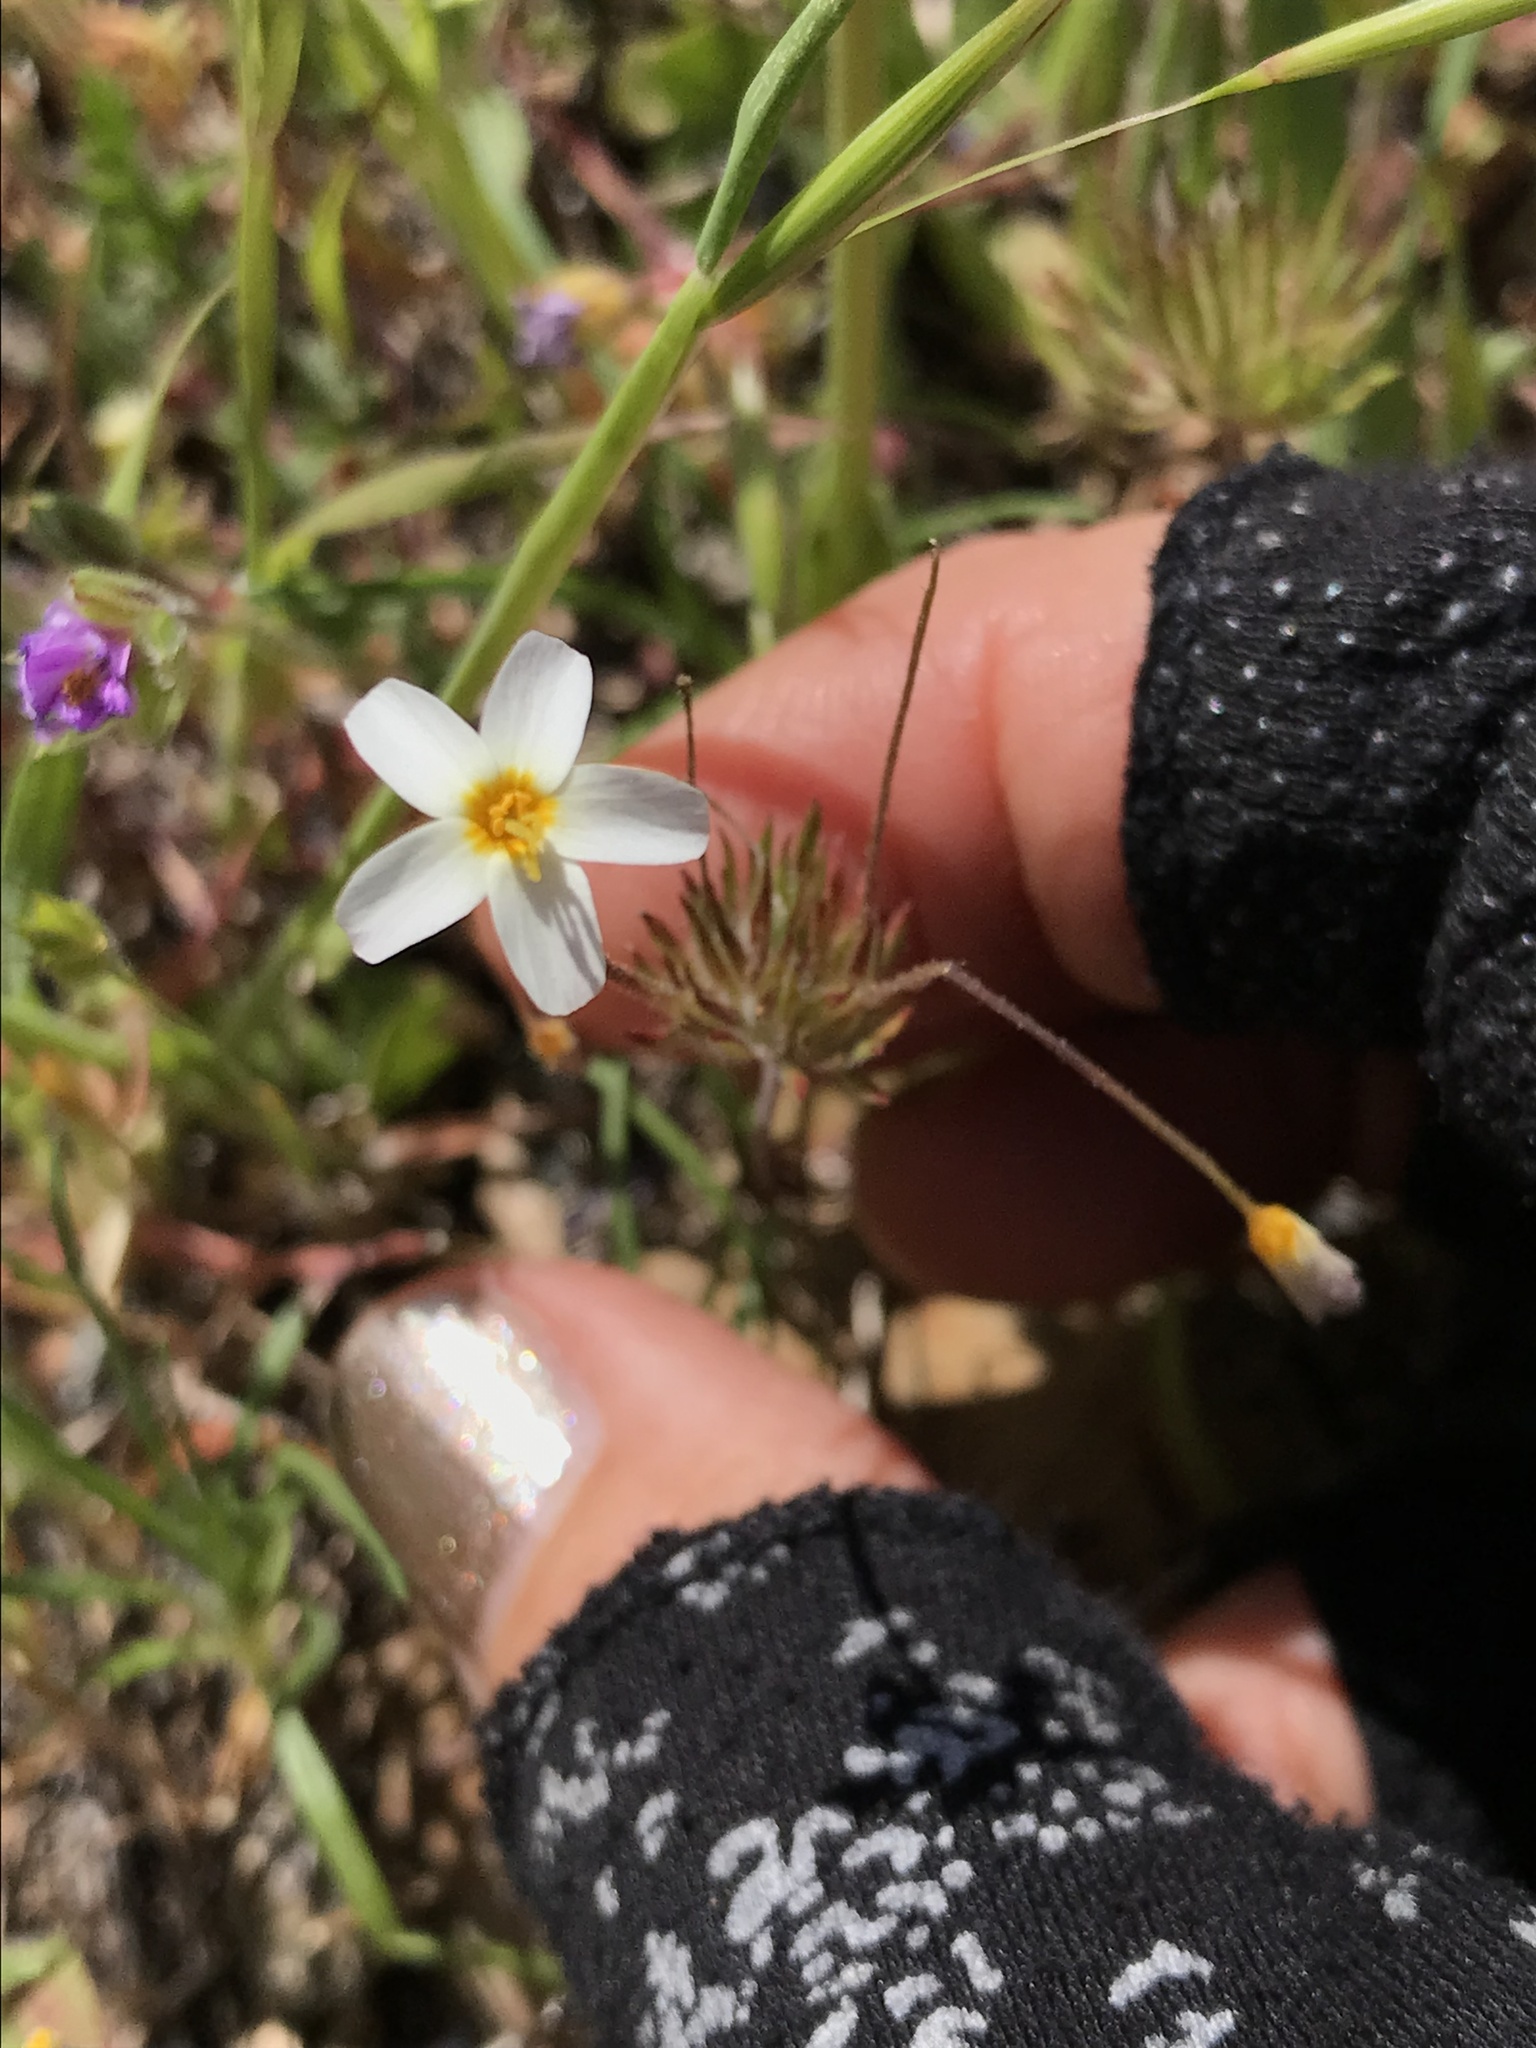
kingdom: Plantae
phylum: Tracheophyta
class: Magnoliopsida
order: Ericales
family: Polemoniaceae
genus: Leptosiphon
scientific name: Leptosiphon parviflorus
